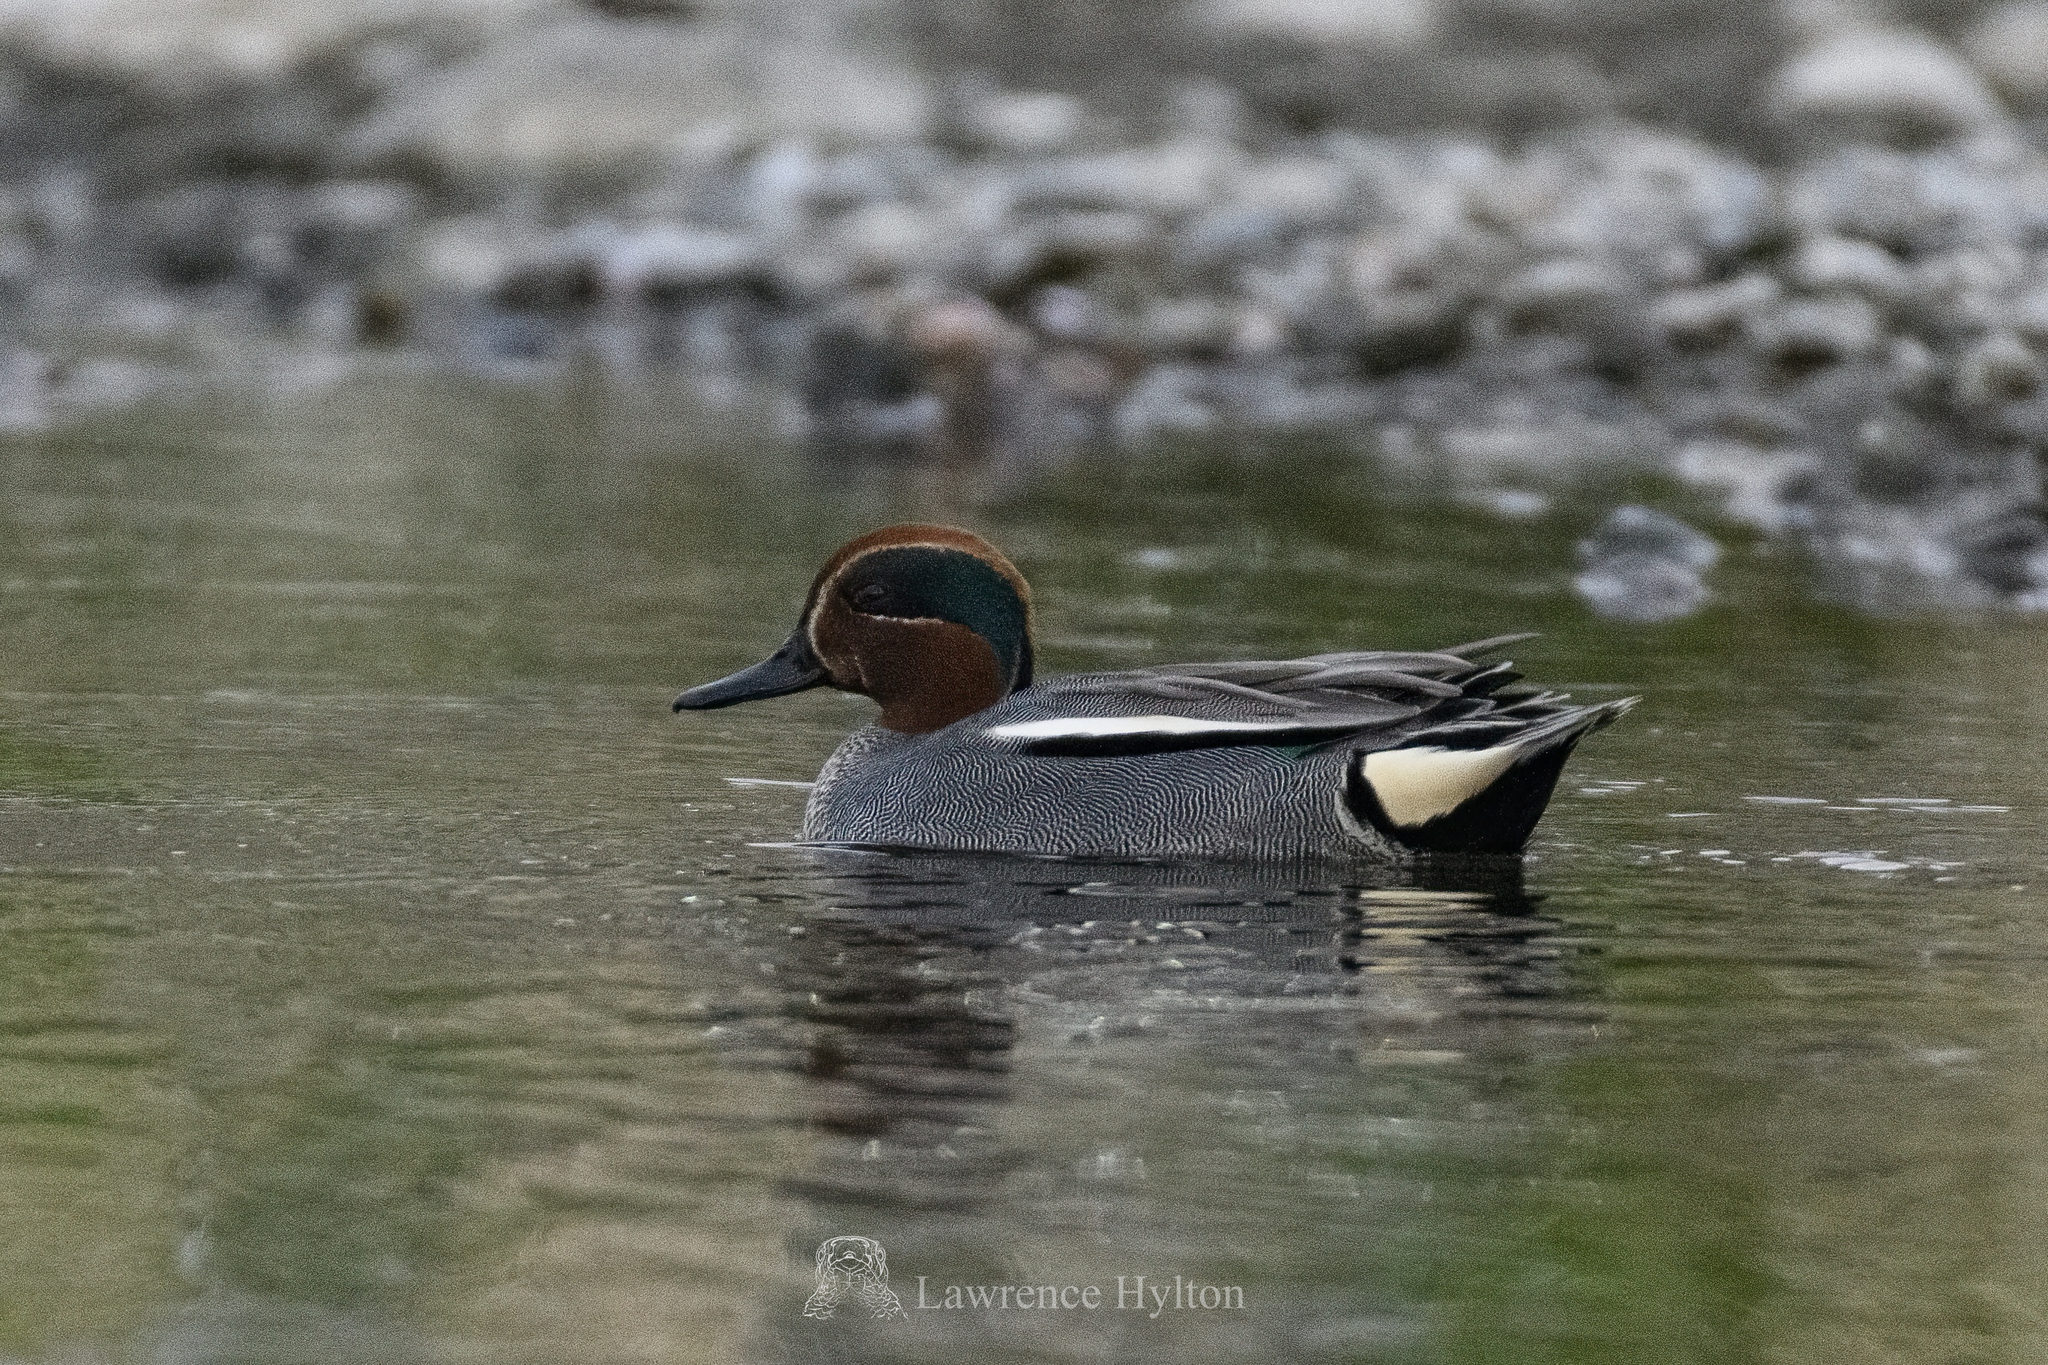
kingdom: Animalia
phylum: Chordata
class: Aves
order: Anseriformes
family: Anatidae
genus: Anas
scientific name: Anas crecca
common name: Eurasian teal
